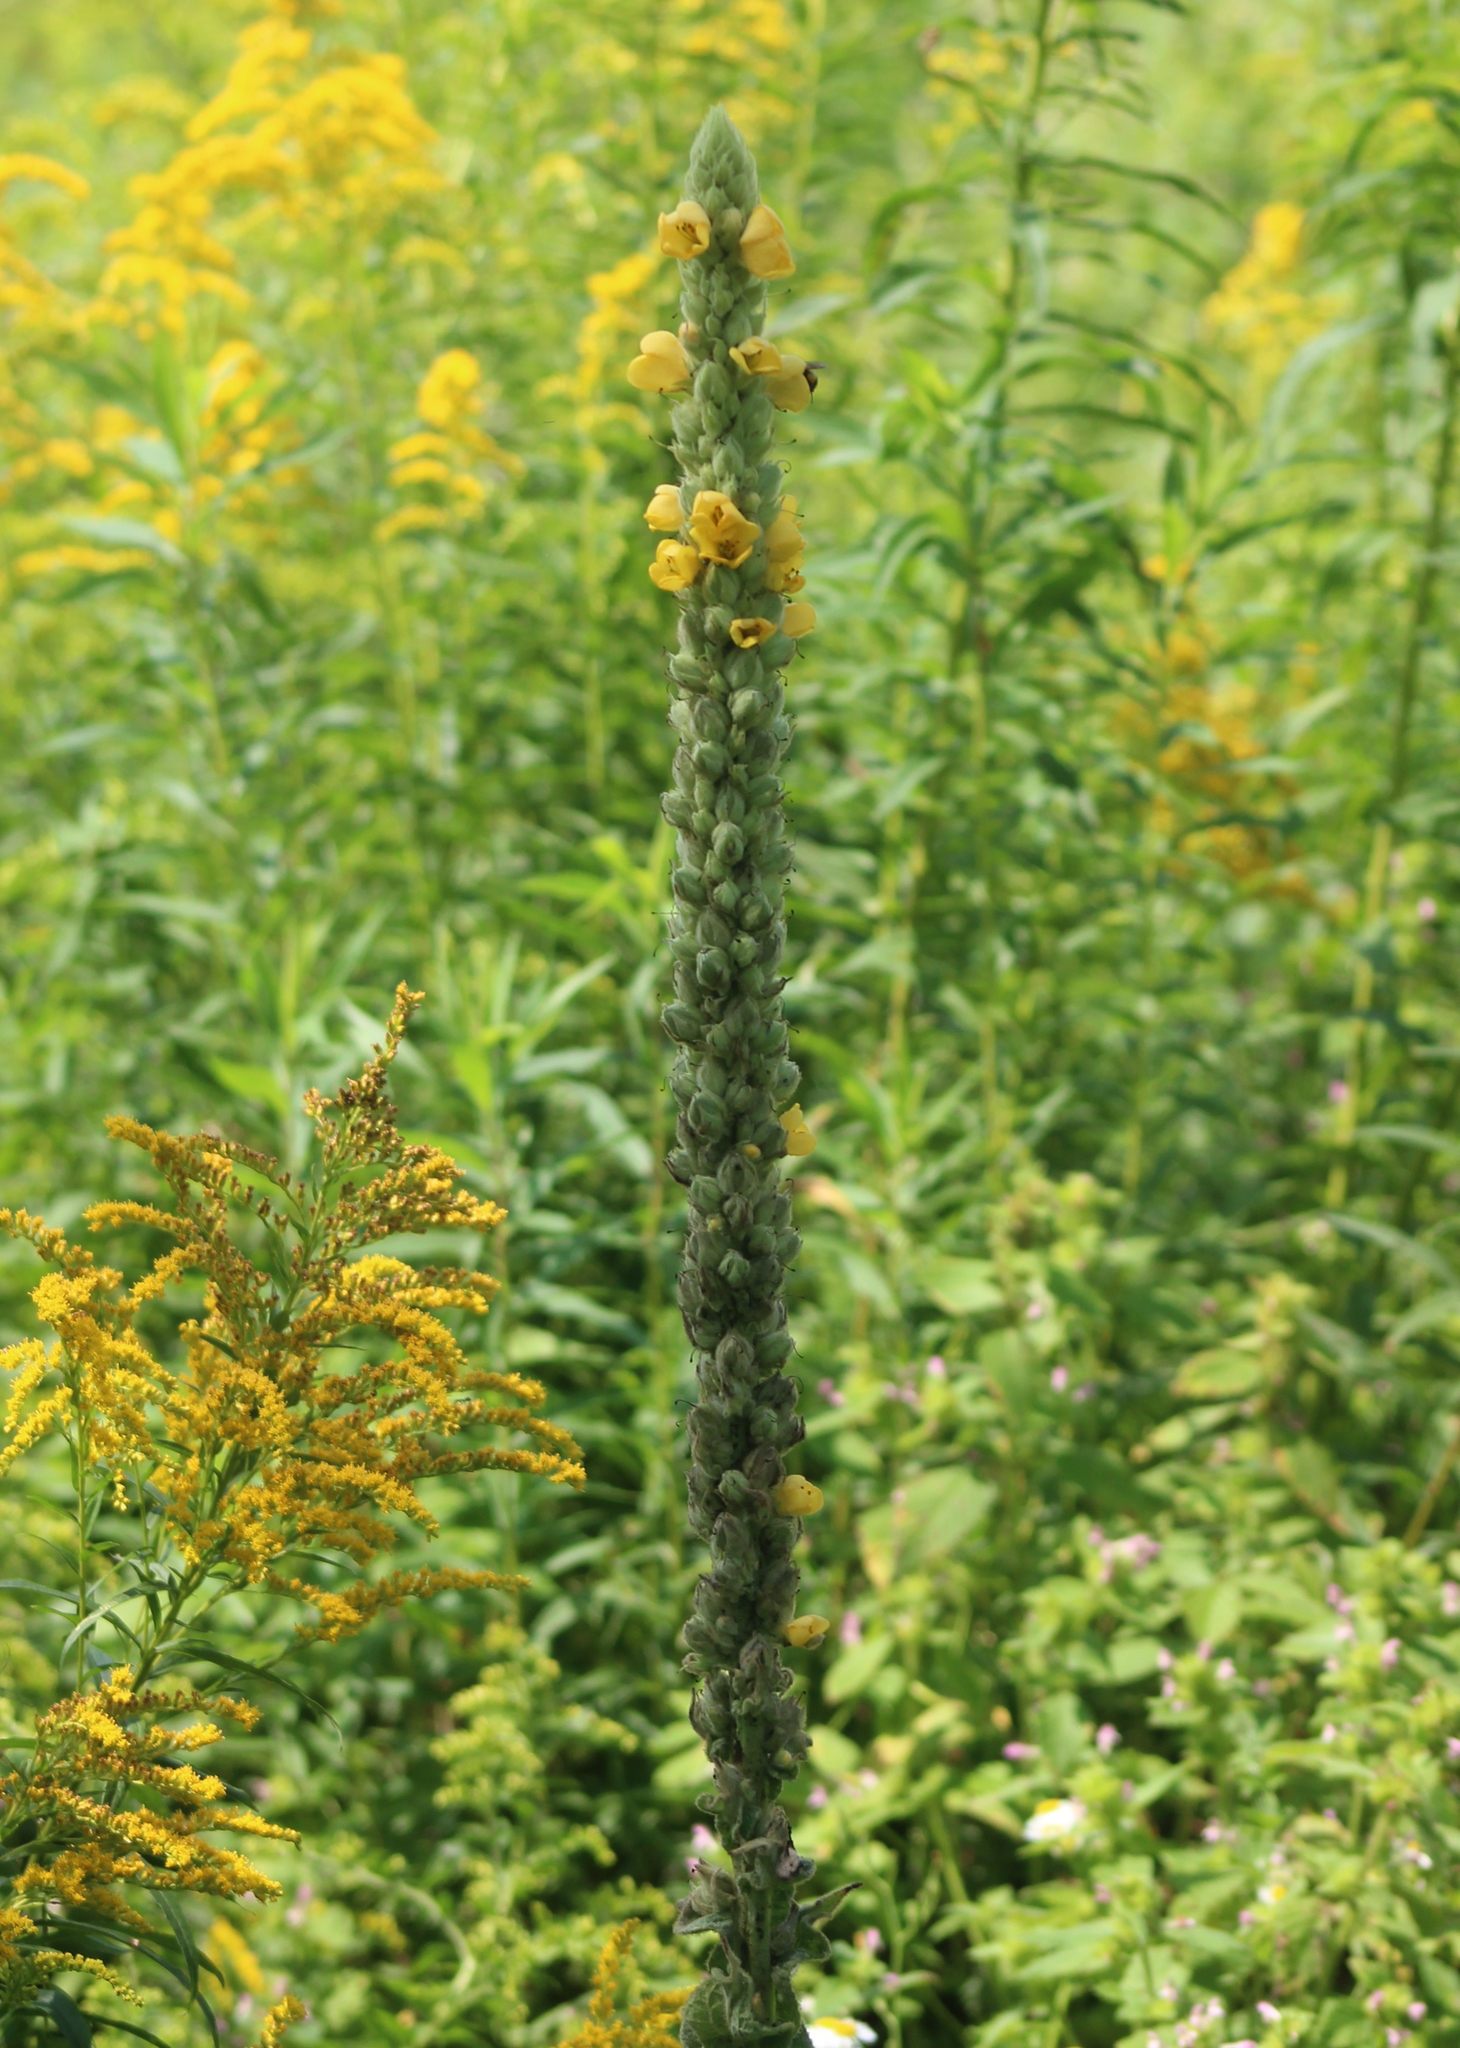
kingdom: Plantae
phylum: Tracheophyta
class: Magnoliopsida
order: Lamiales
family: Scrophulariaceae
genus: Verbascum
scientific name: Verbascum thapsus
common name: Common mullein
